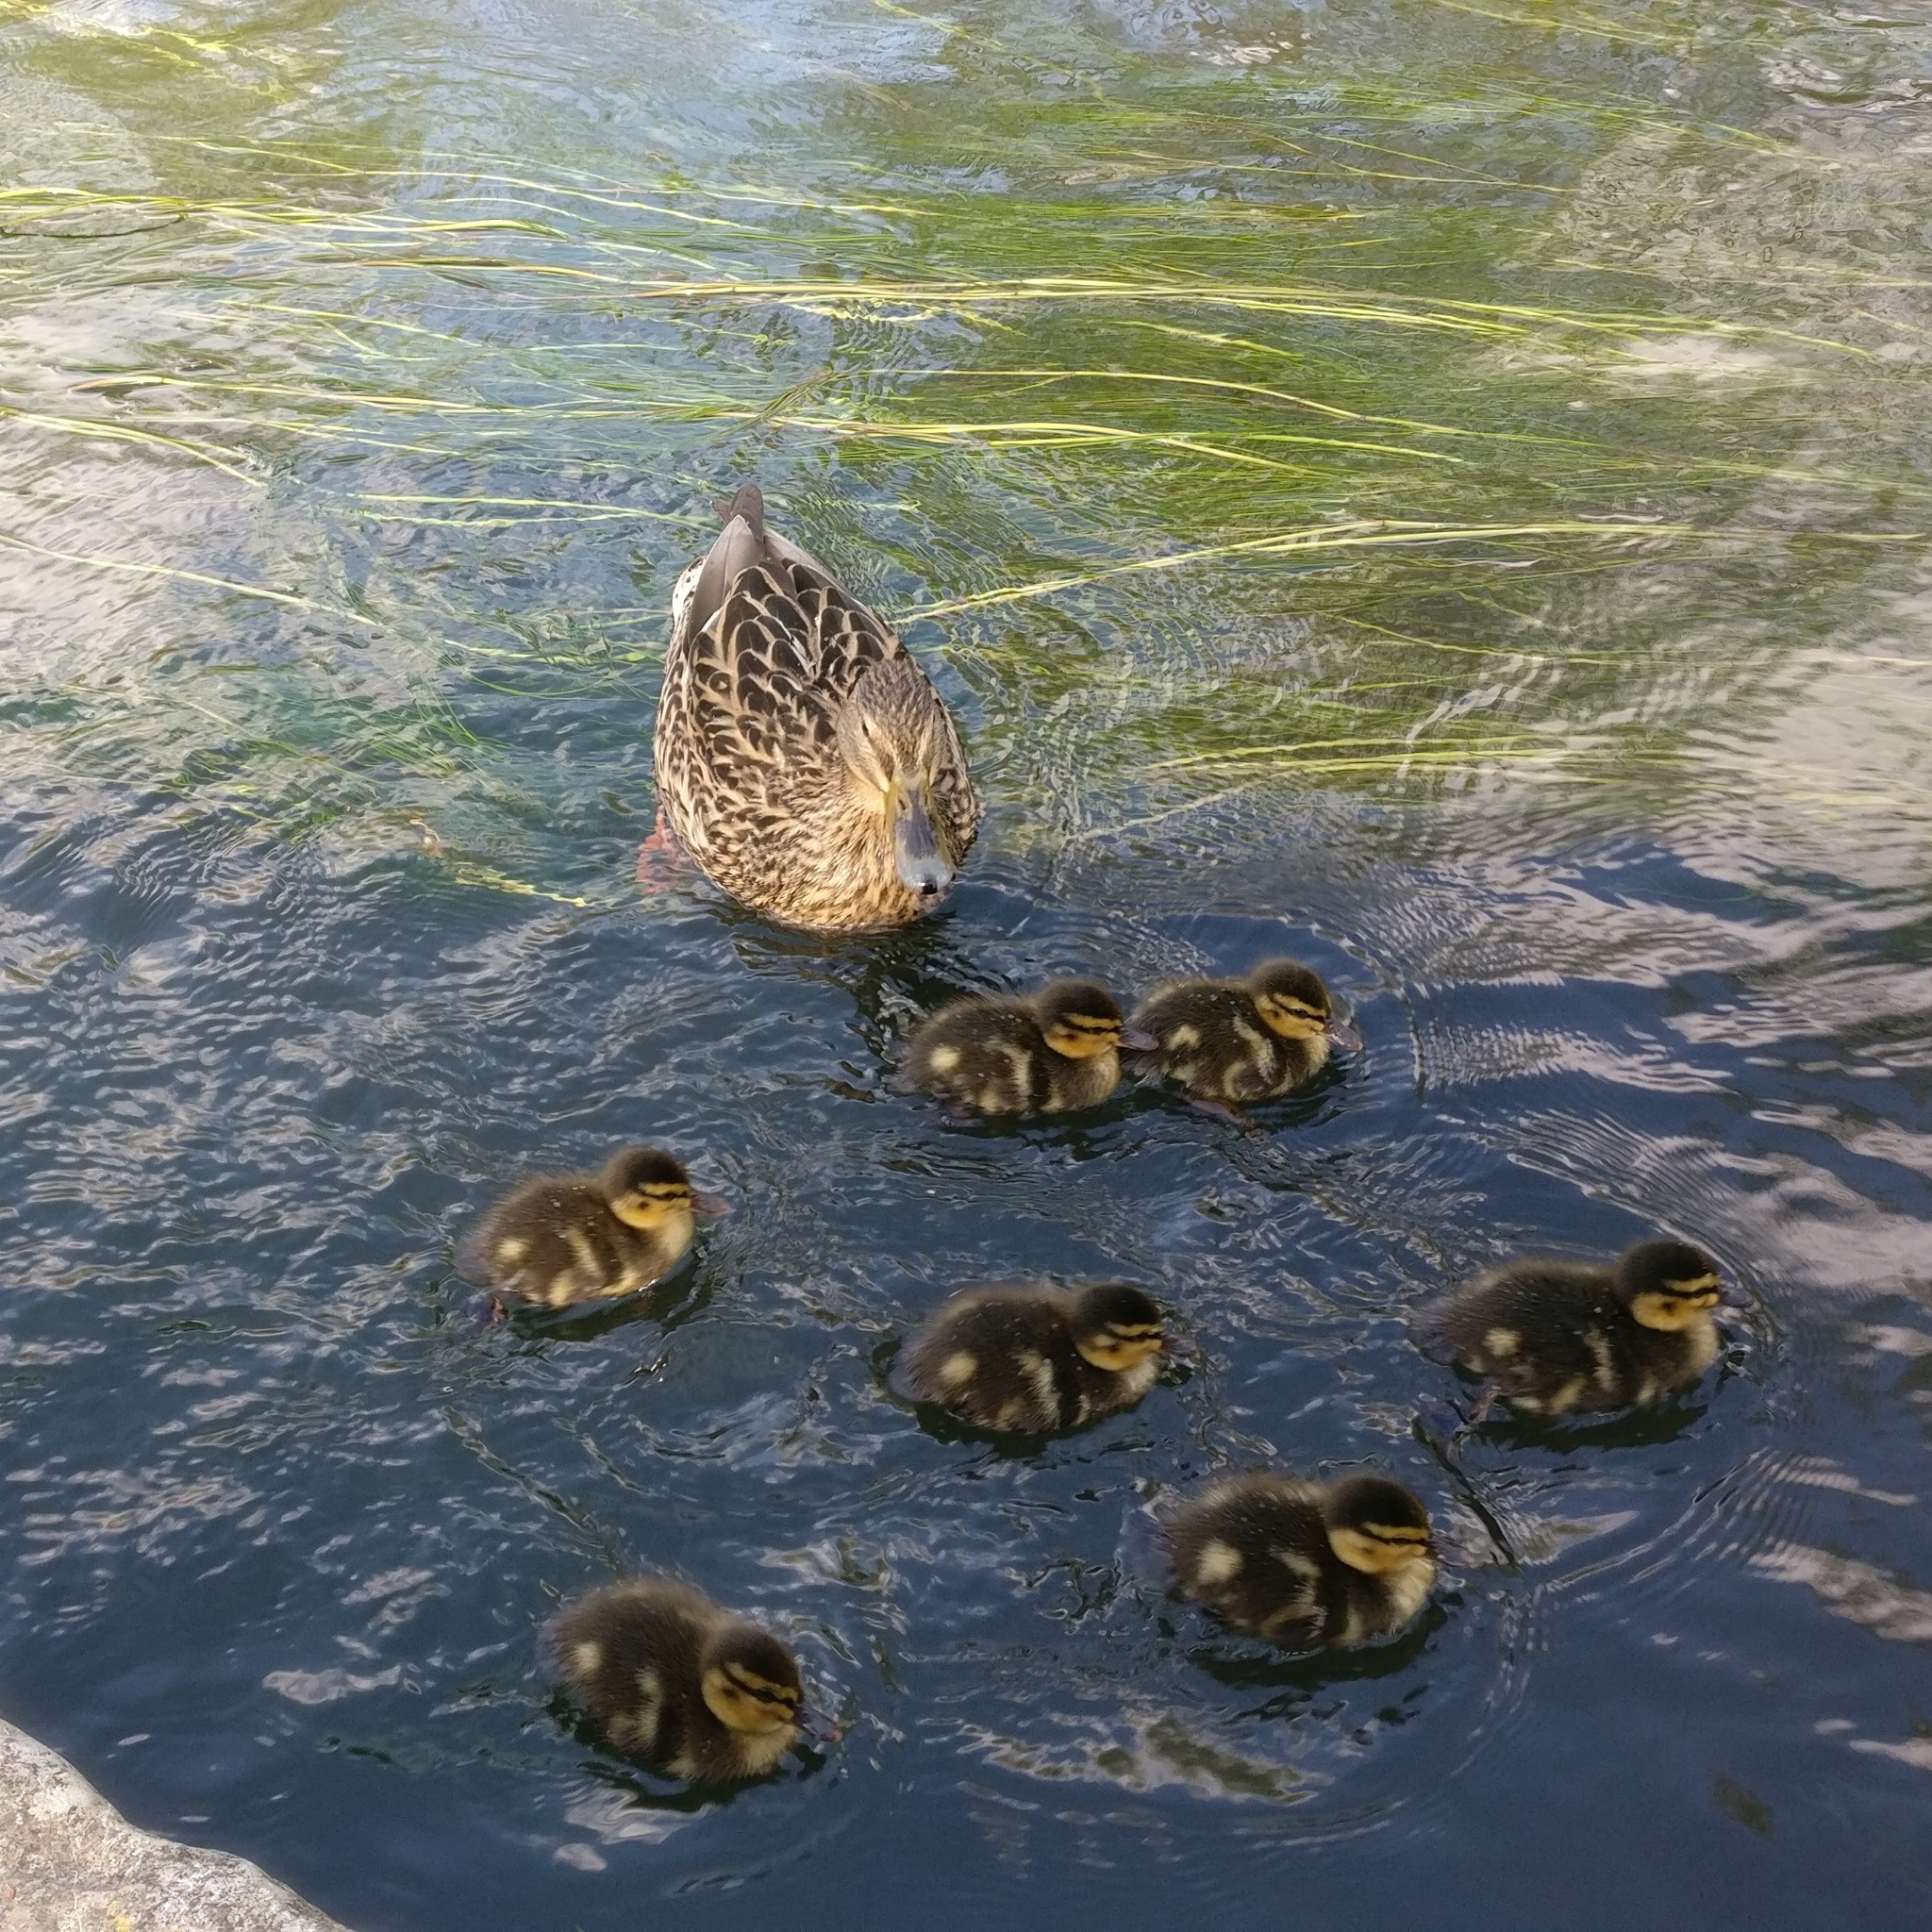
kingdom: Animalia
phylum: Chordata
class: Aves
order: Anseriformes
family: Anatidae
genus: Anas
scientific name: Anas platyrhynchos
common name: Mallard
